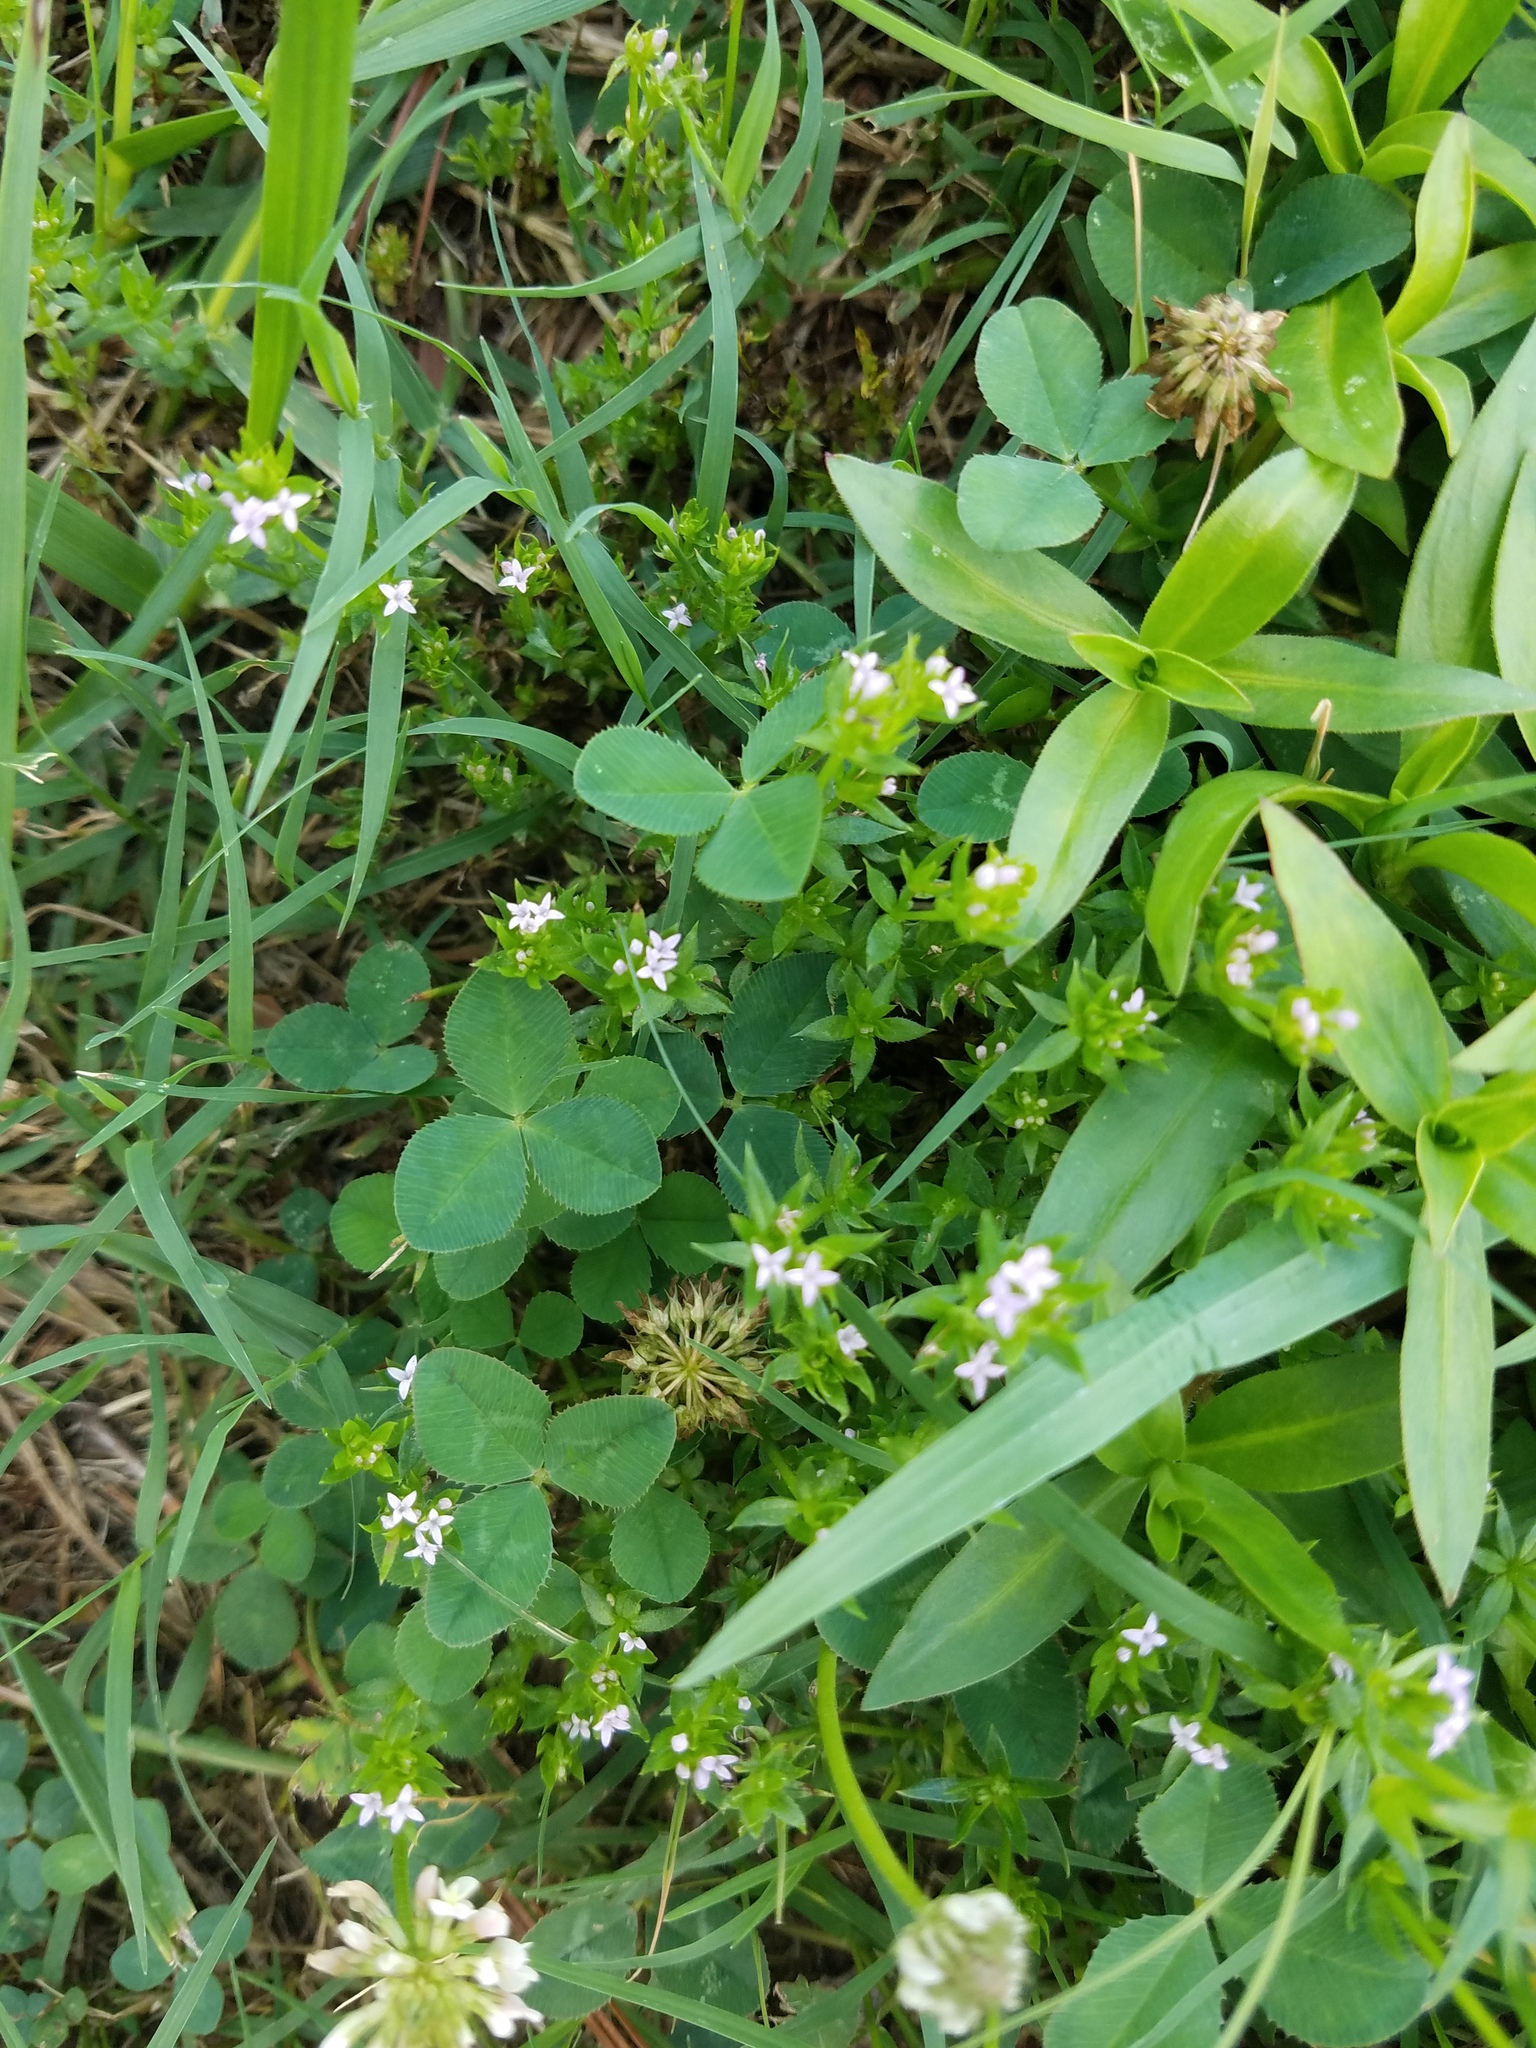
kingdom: Plantae
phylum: Tracheophyta
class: Magnoliopsida
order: Gentianales
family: Rubiaceae
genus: Sherardia
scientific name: Sherardia arvensis
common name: Field madder
